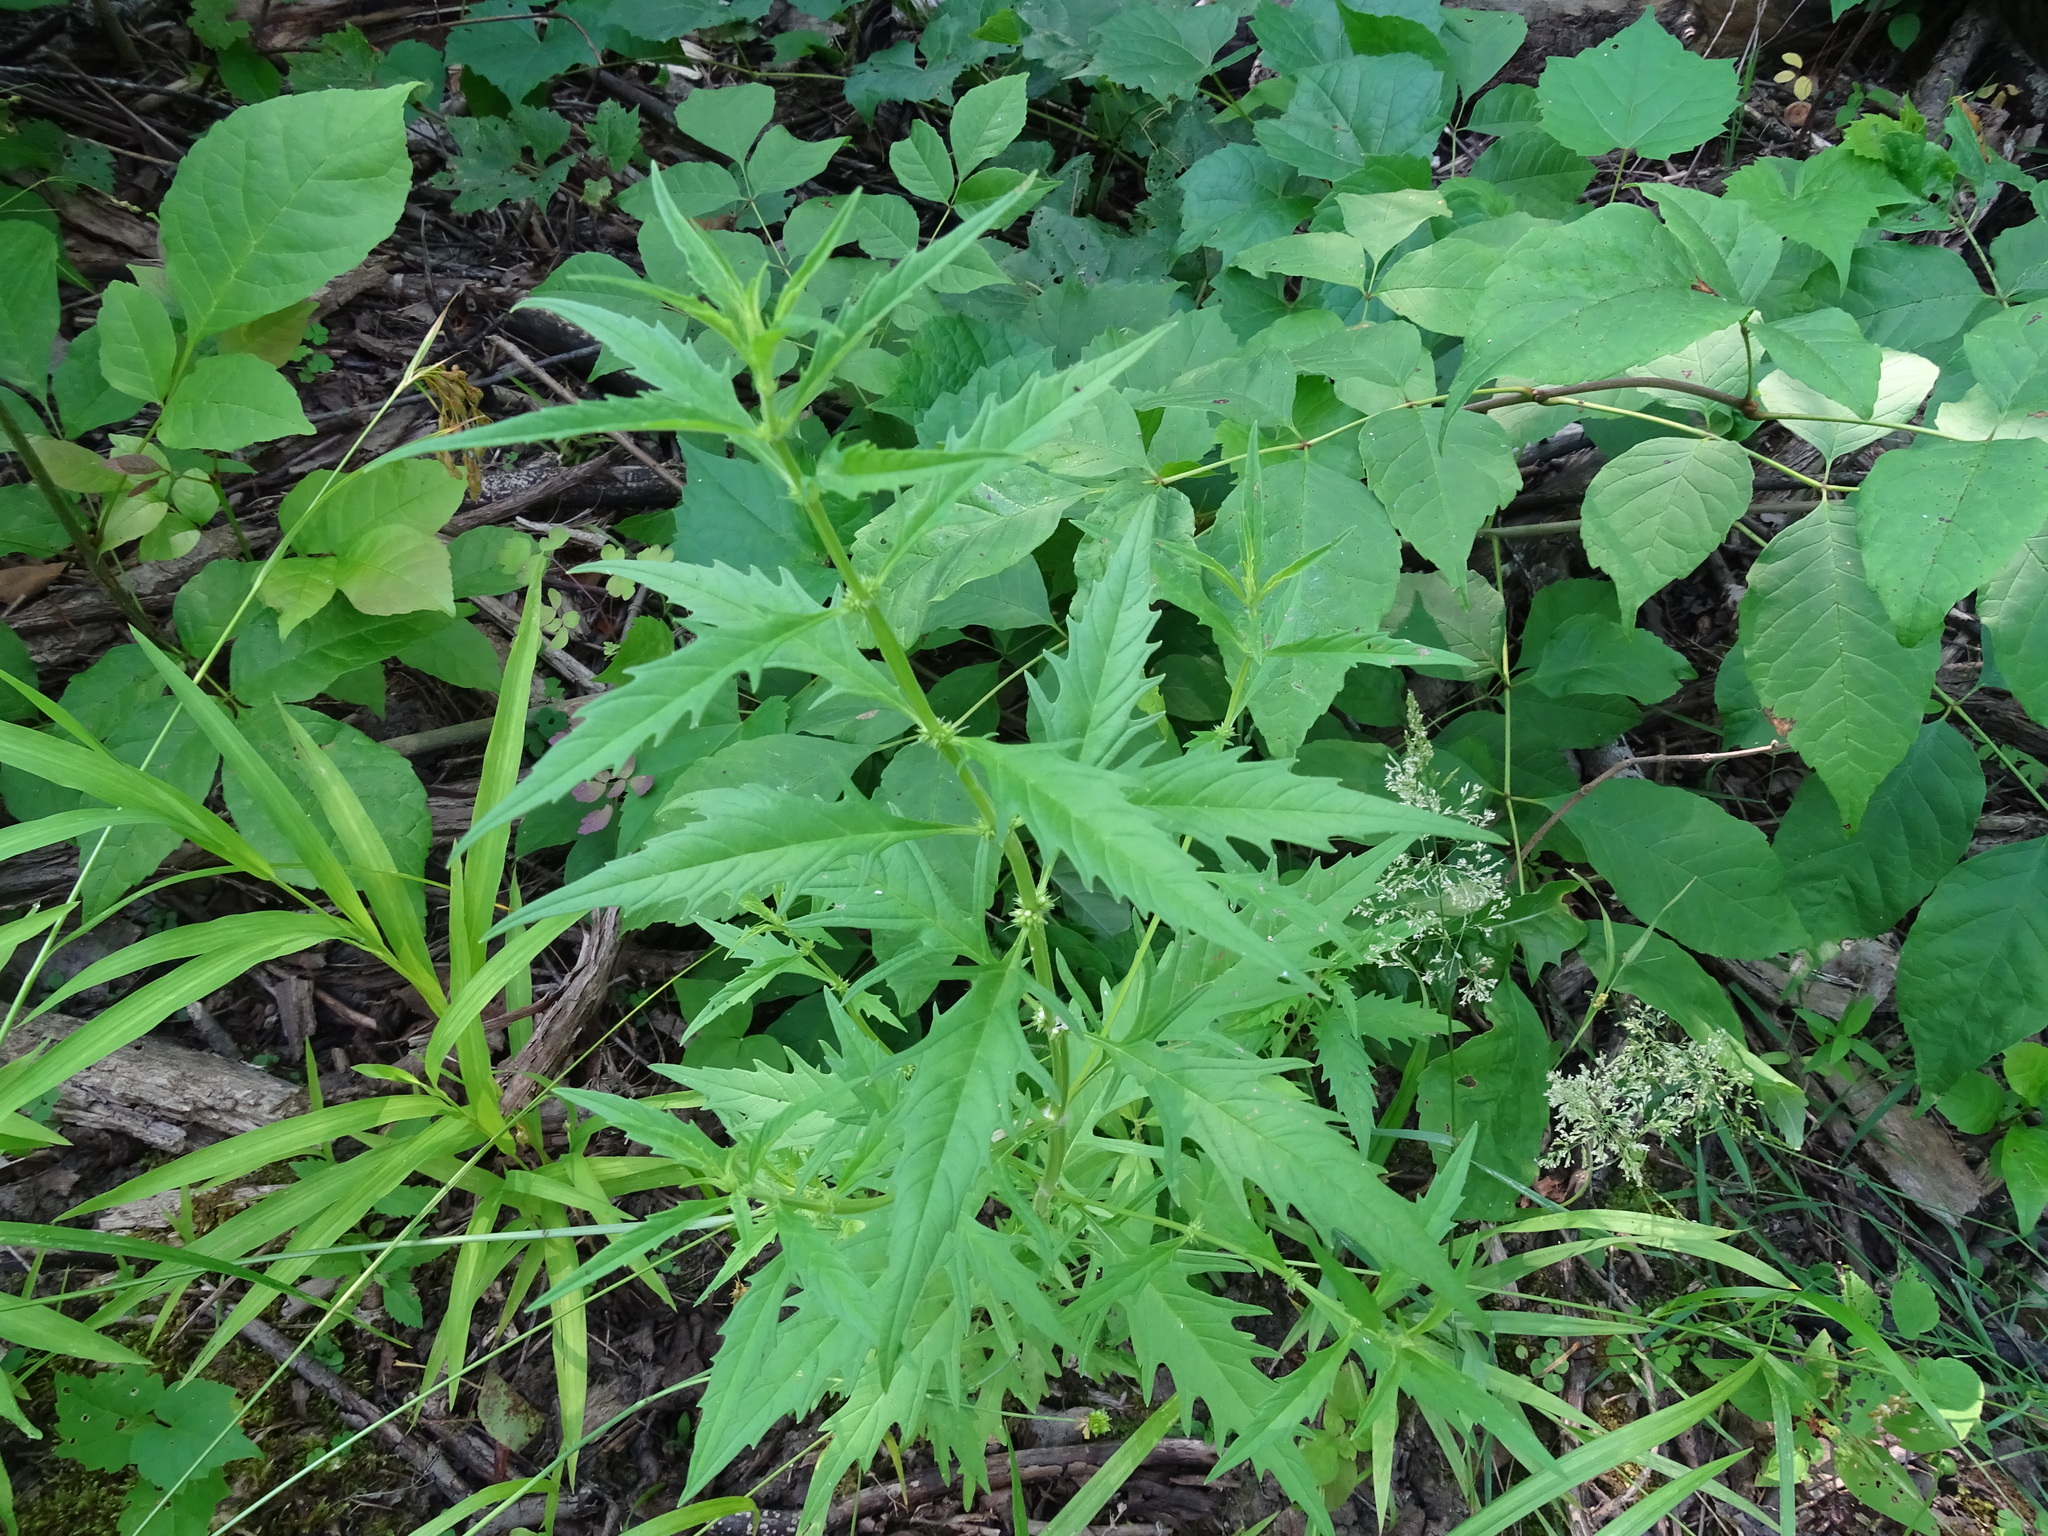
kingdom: Plantae
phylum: Tracheophyta
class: Magnoliopsida
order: Lamiales
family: Lamiaceae
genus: Lycopus
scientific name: Lycopus americanus
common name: American bugleweed
